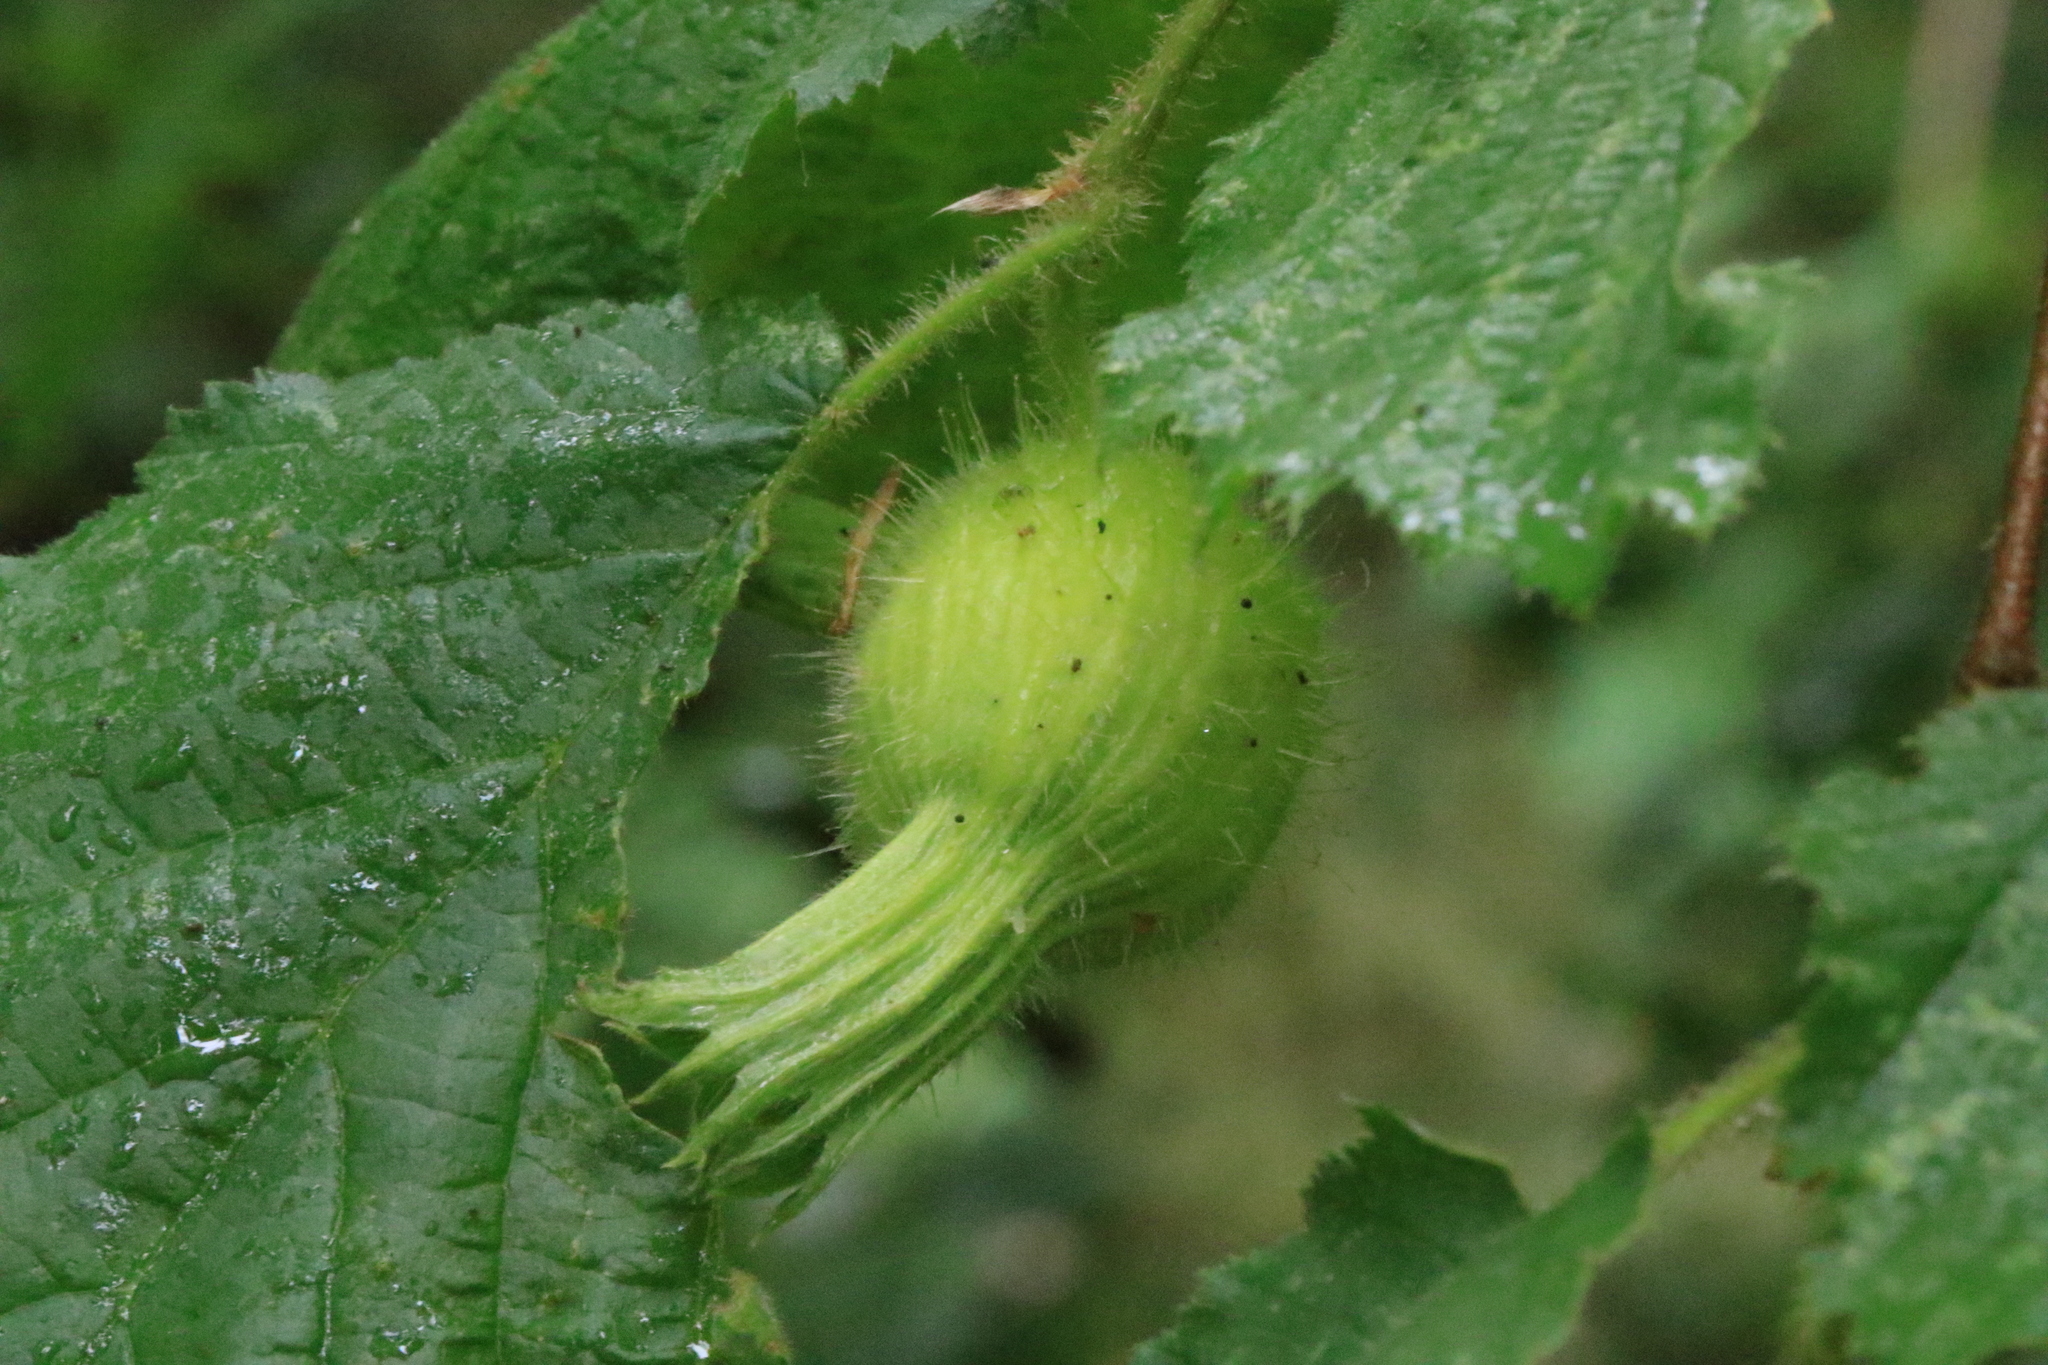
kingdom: Plantae
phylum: Tracheophyta
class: Magnoliopsida
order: Fagales
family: Betulaceae
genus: Corylus
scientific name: Corylus cornuta
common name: Beaked hazel
